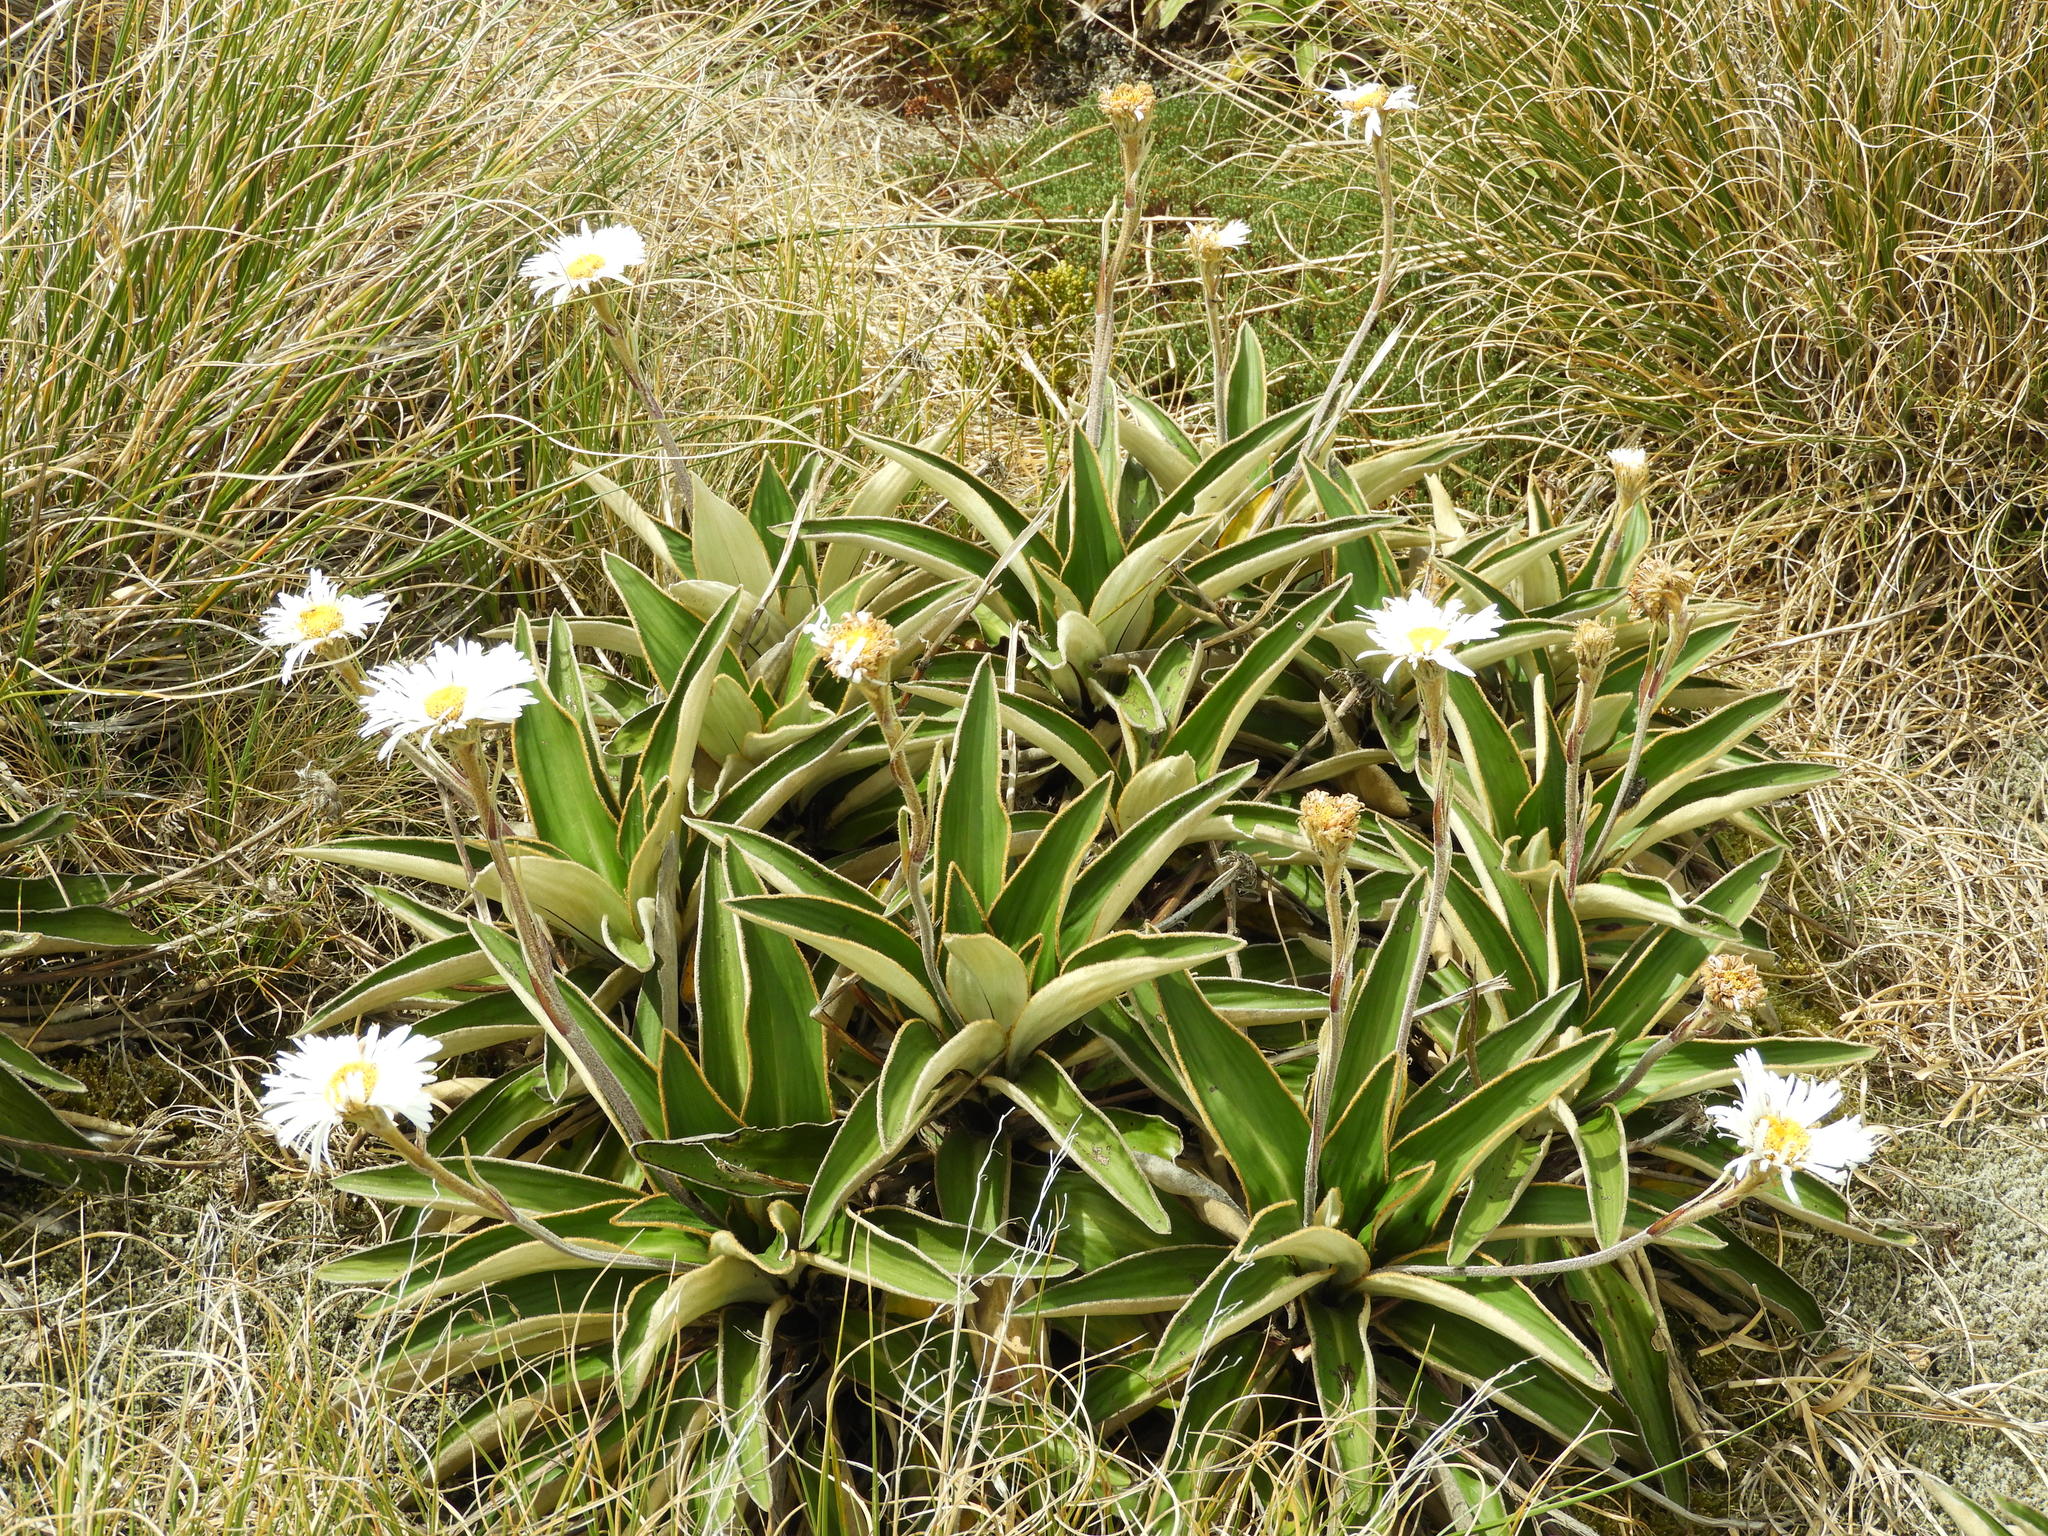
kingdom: Plantae
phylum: Tracheophyta
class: Magnoliopsida
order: Asterales
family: Asteraceae
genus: Celmisia
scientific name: Celmisia verbascifolia
